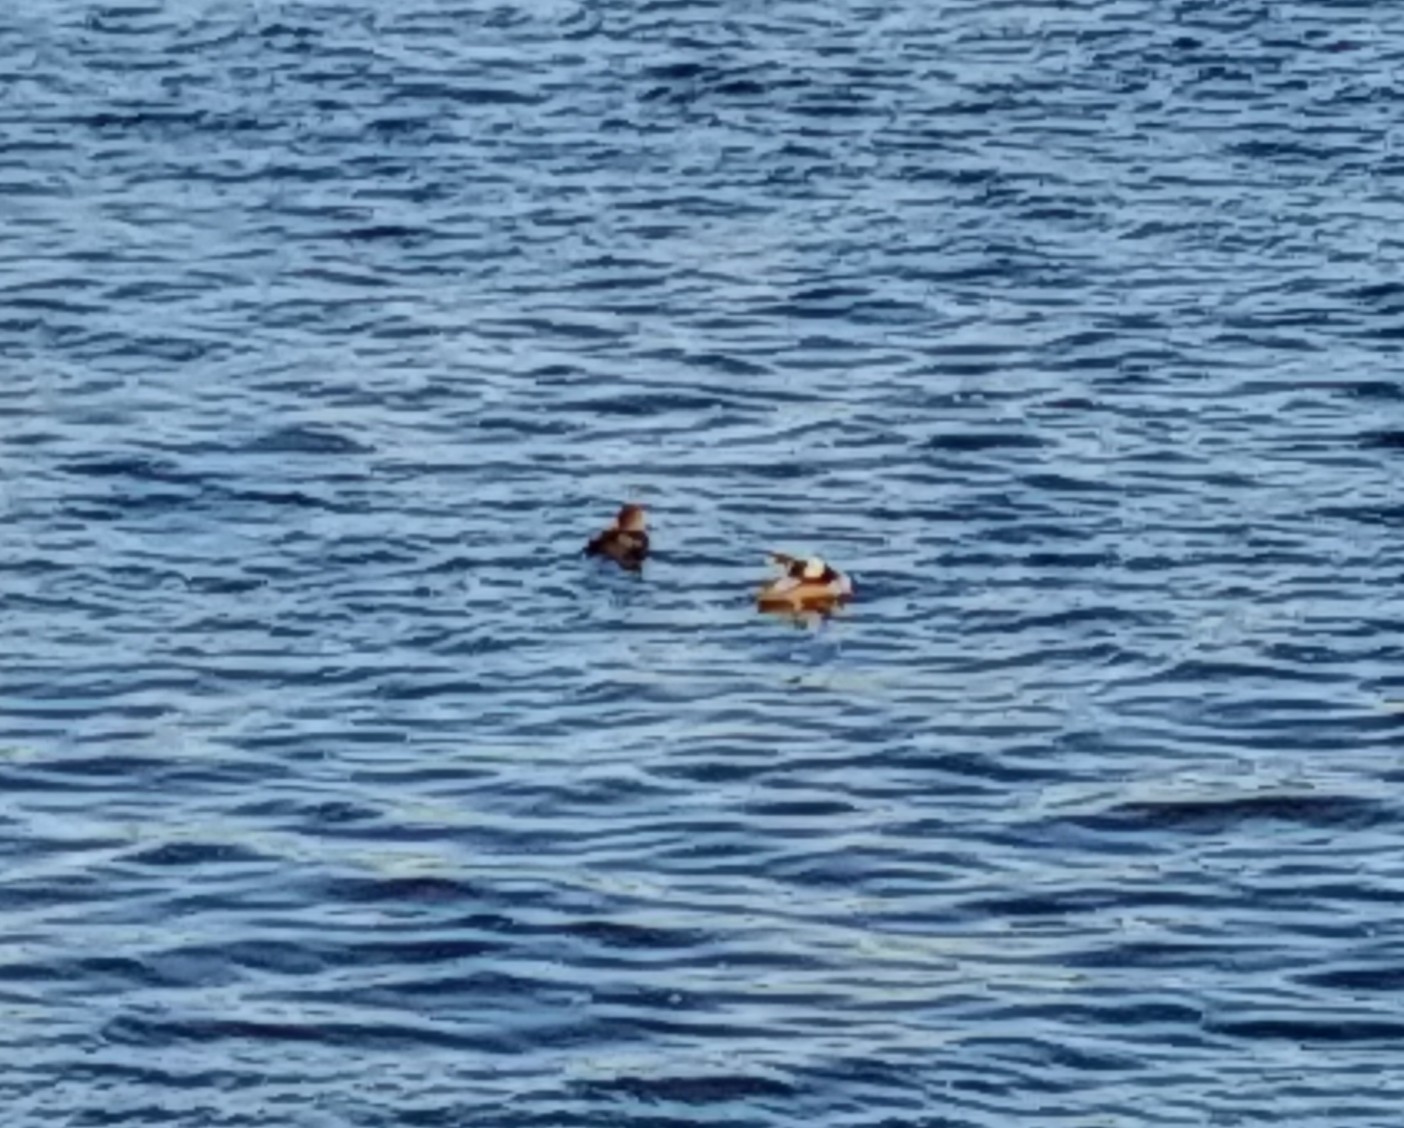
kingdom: Animalia
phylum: Chordata
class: Aves
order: Anseriformes
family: Anatidae
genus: Lophodytes
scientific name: Lophodytes cucullatus
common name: Hooded merganser
